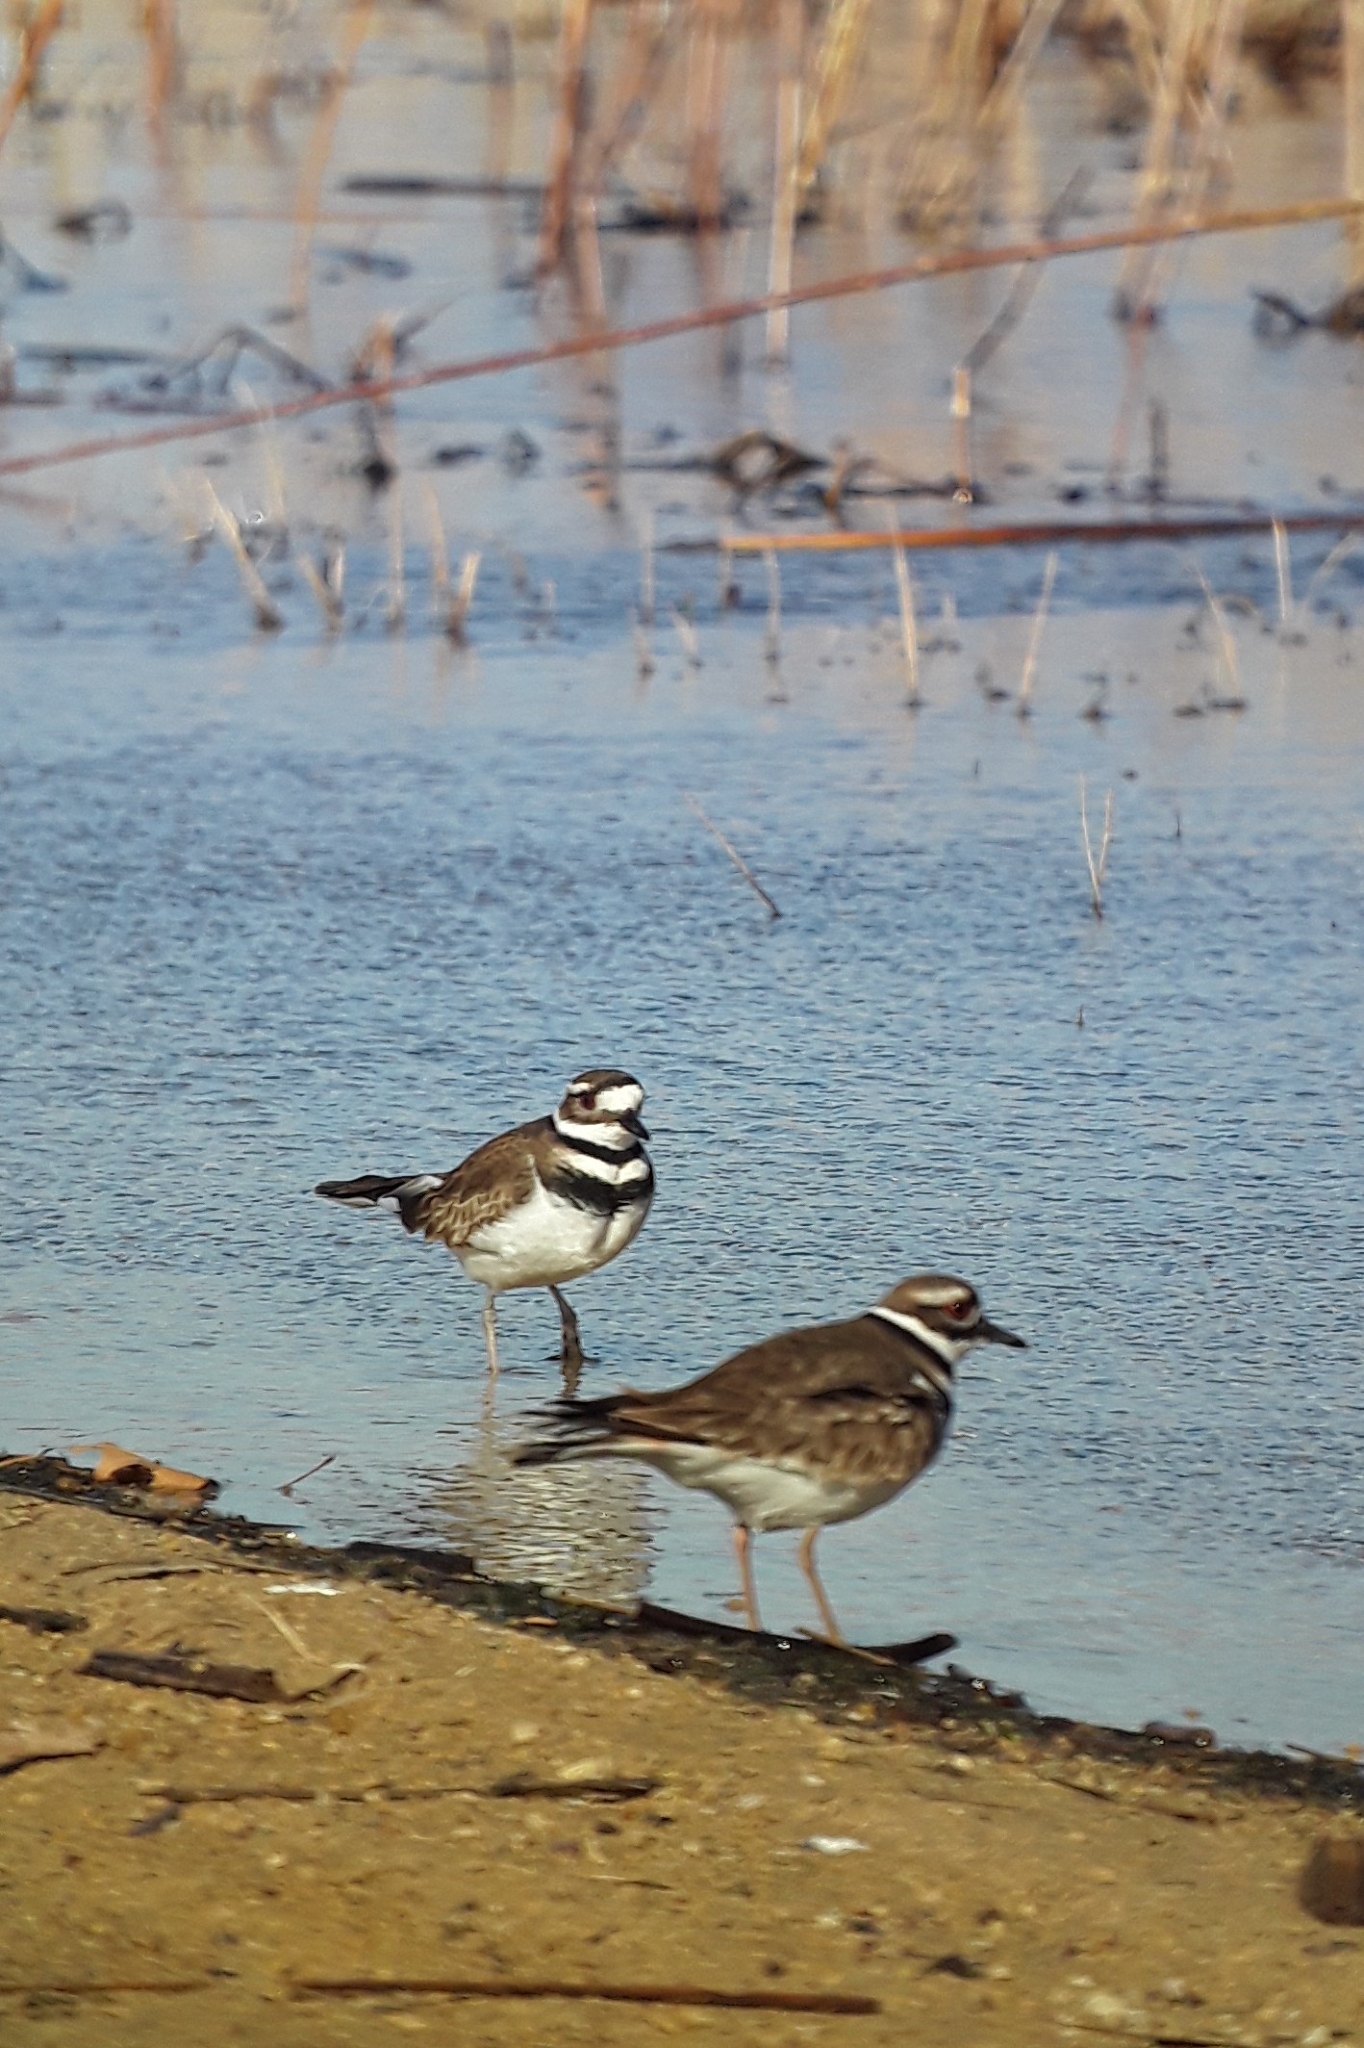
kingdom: Animalia
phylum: Chordata
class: Aves
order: Charadriiformes
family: Charadriidae
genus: Charadrius
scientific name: Charadrius vociferus
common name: Killdeer
